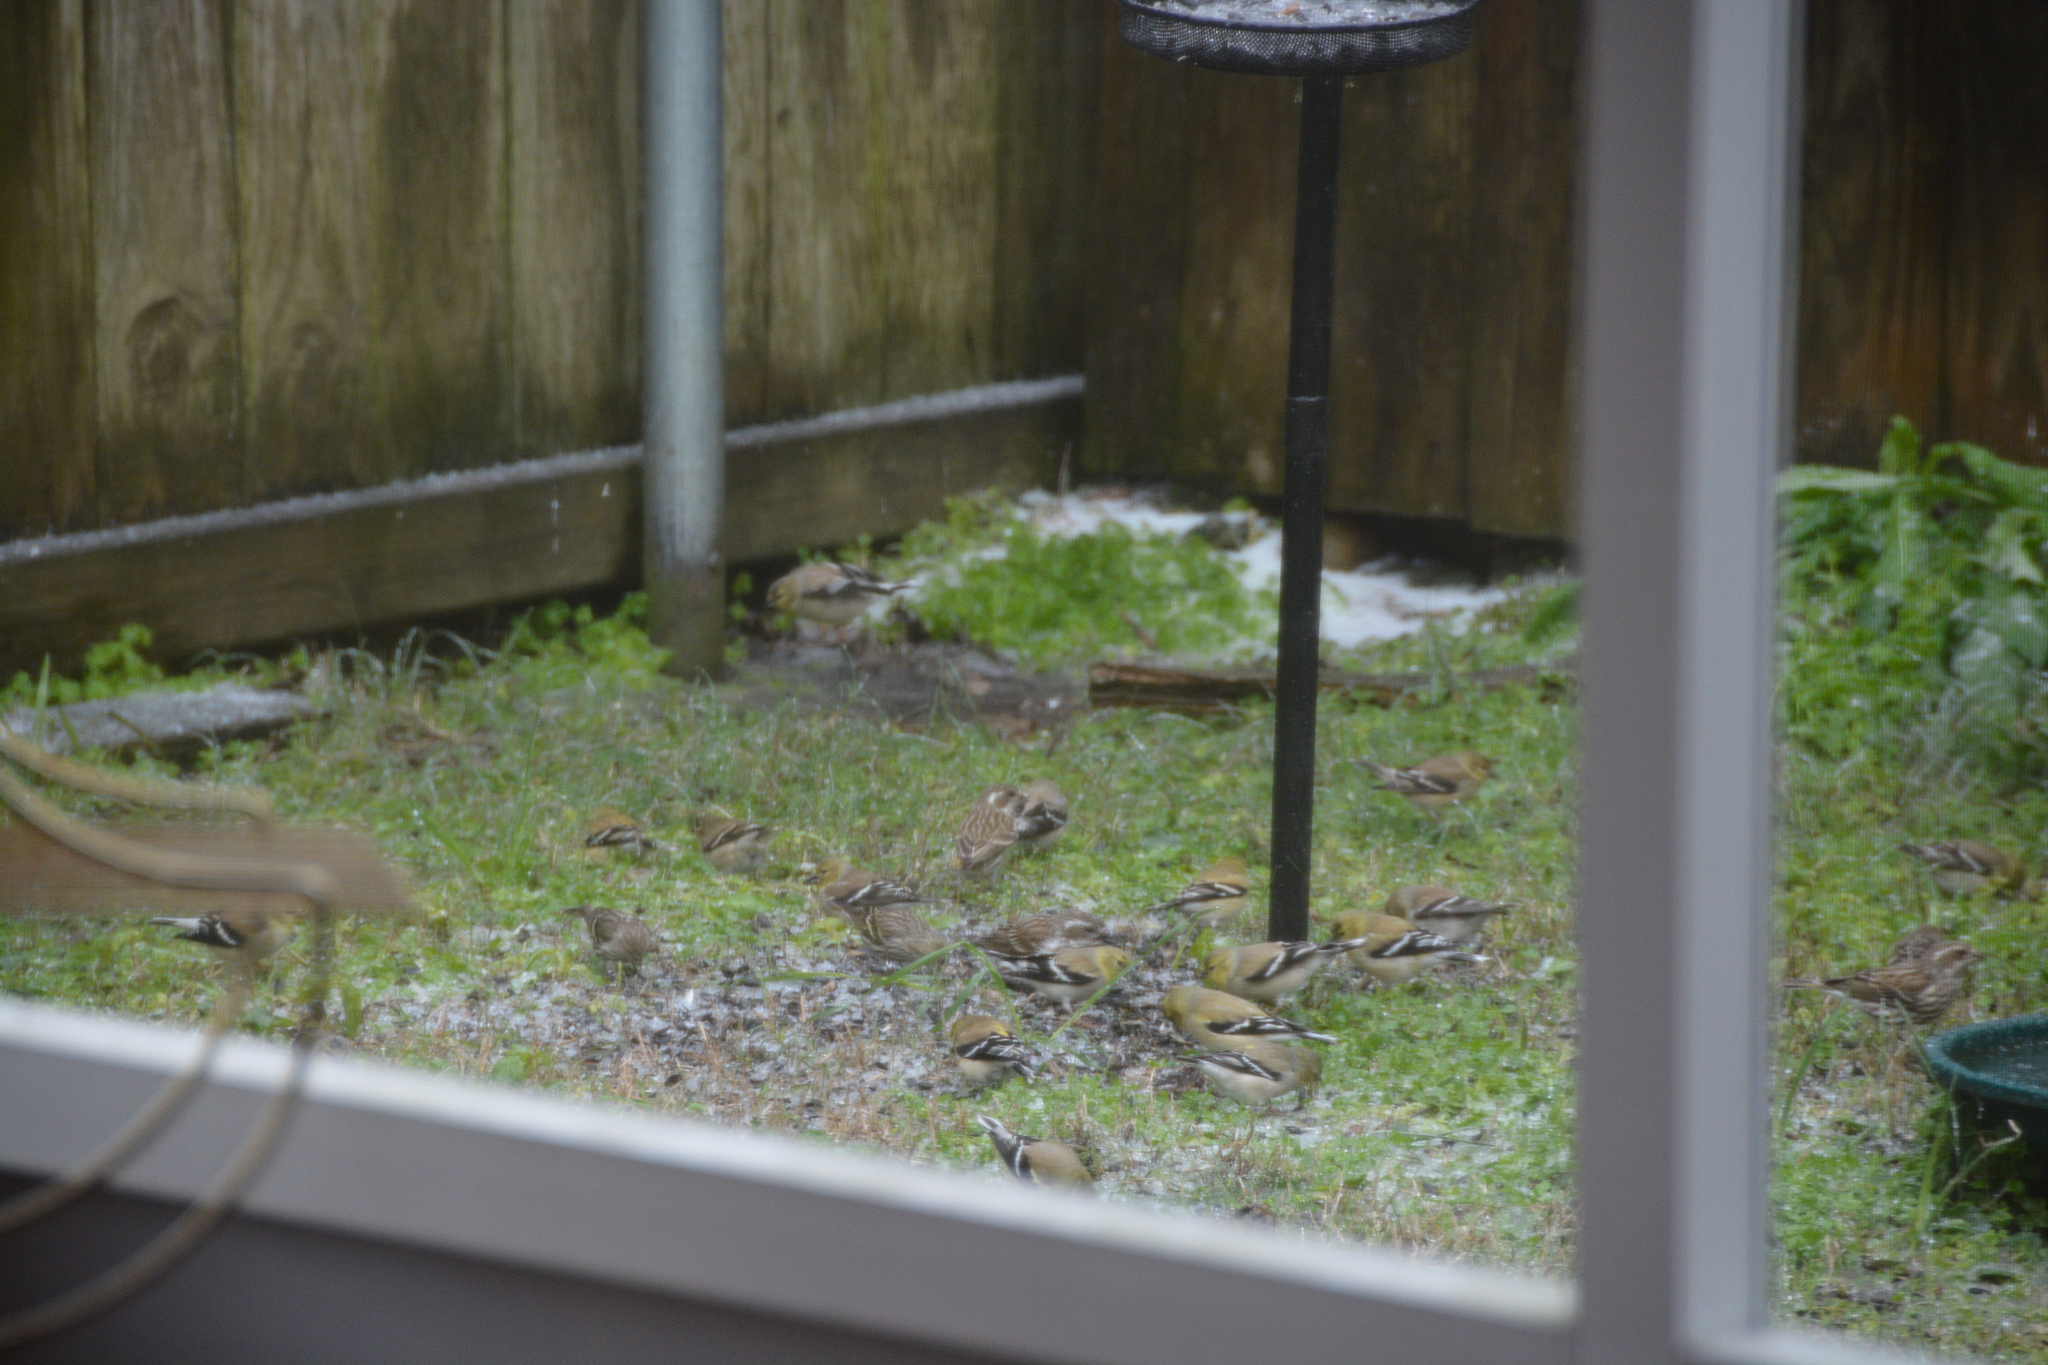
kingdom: Animalia
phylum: Chordata
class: Aves
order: Passeriformes
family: Fringillidae
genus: Spinus
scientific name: Spinus tristis
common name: American goldfinch
